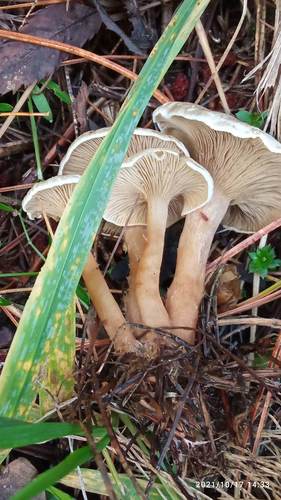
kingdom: Fungi
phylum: Basidiomycota
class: Agaricomycetes
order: Agaricales
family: Tricholomataceae
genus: Clitocybe
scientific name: Clitocybe phyllophila
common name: Frosty funnel
